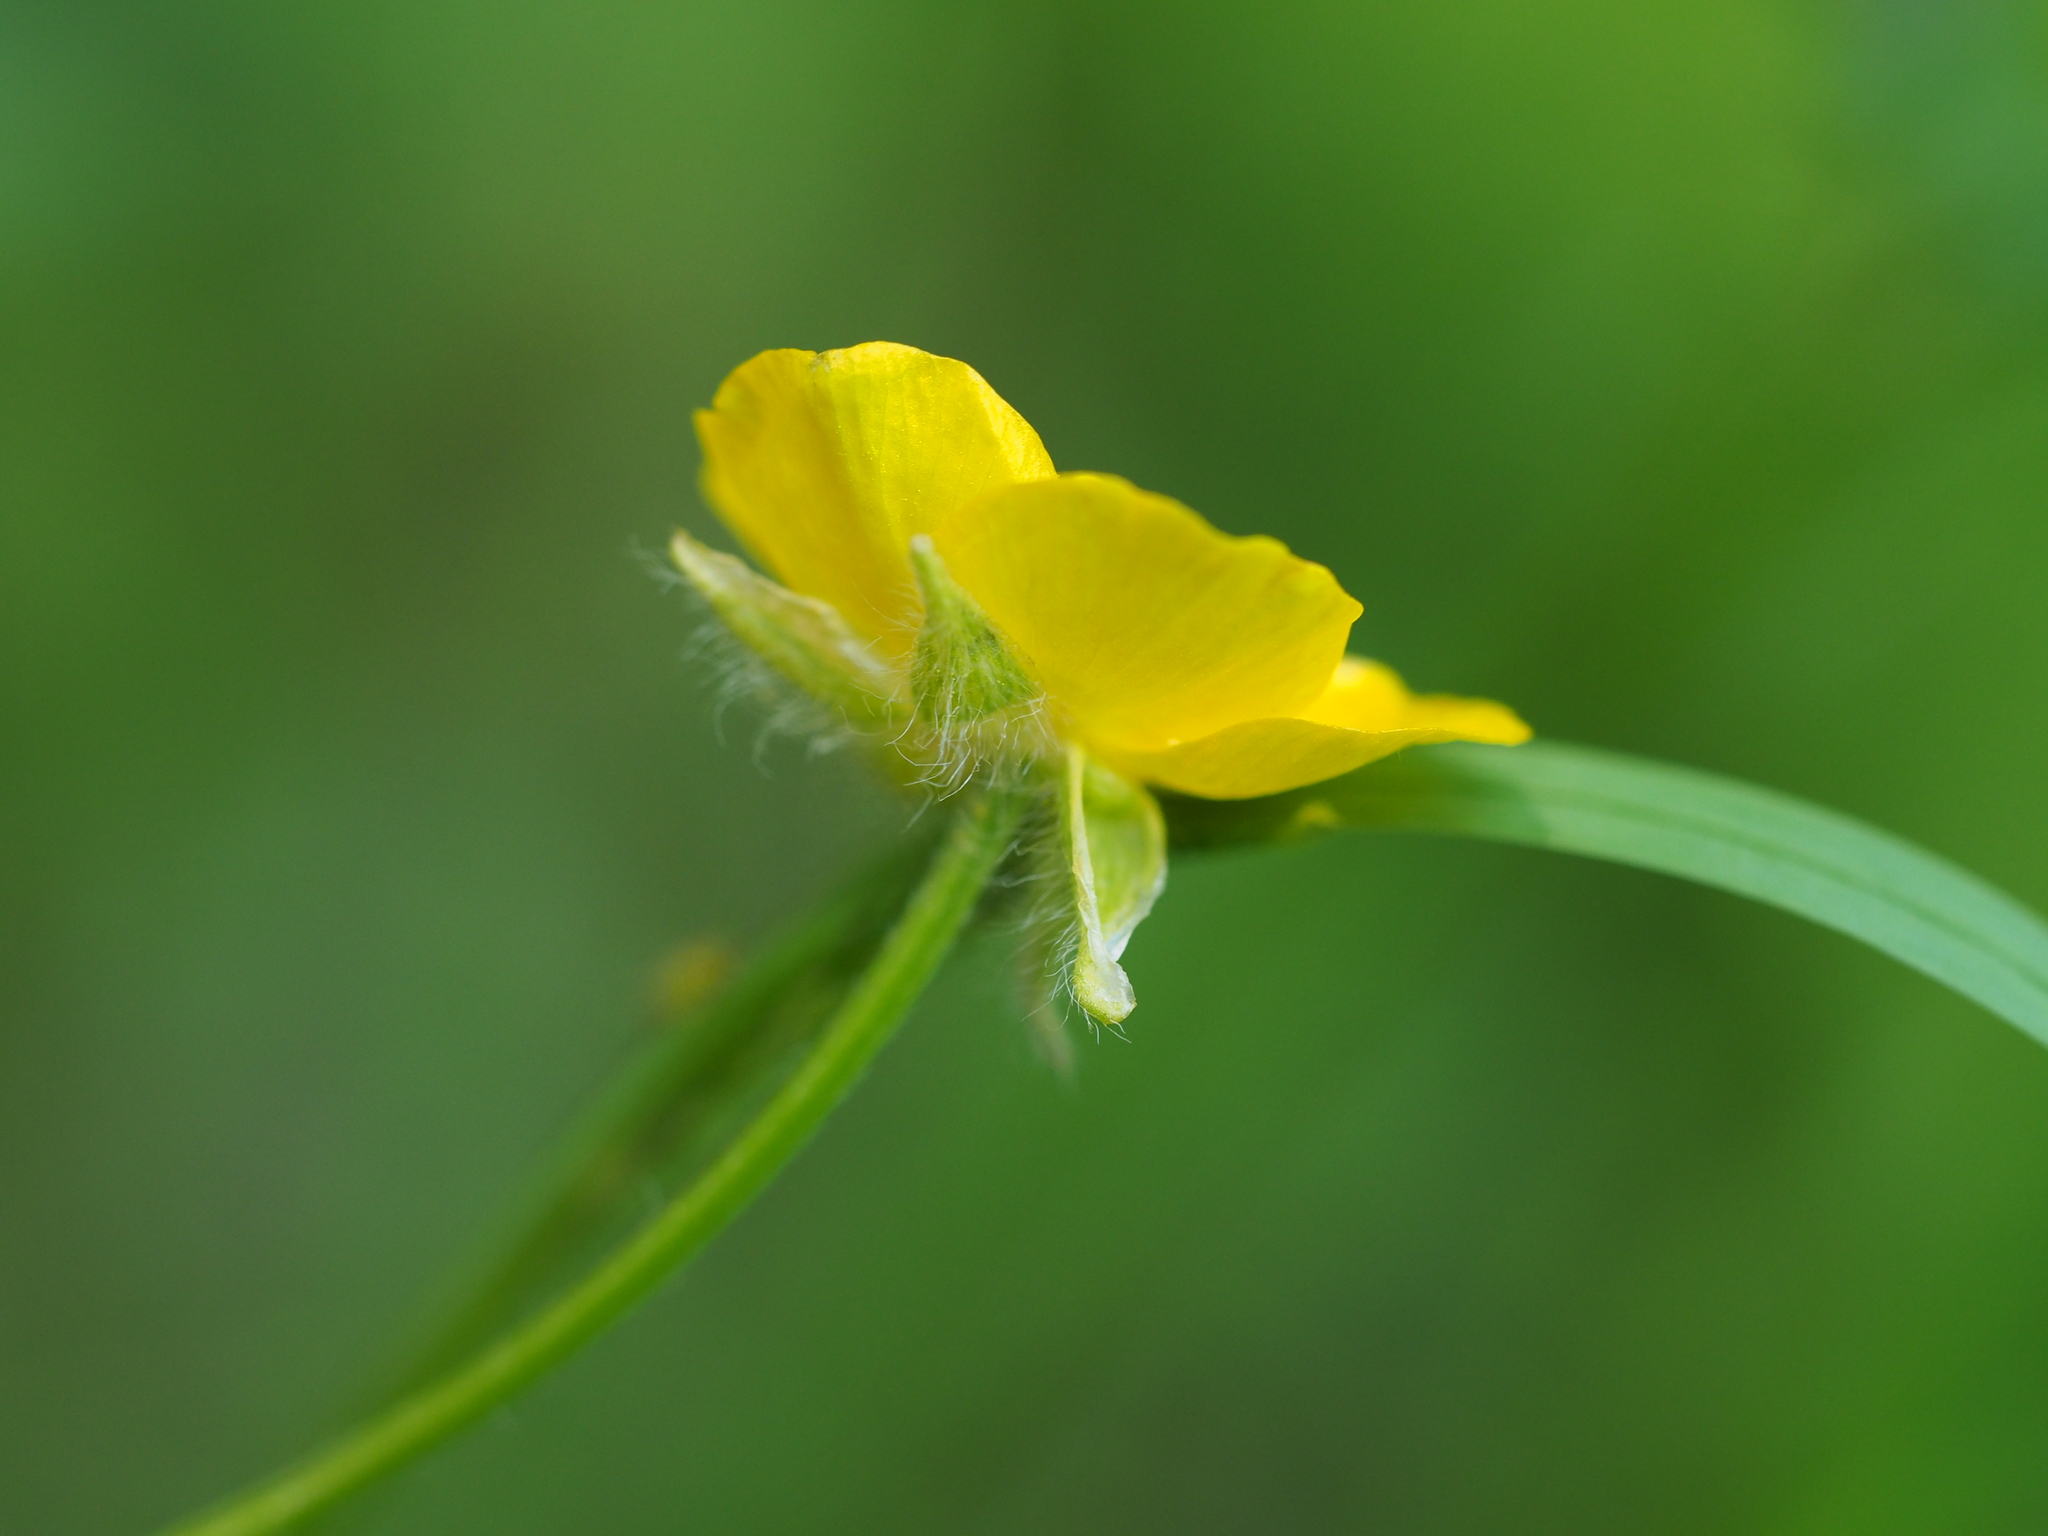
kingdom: Plantae
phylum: Tracheophyta
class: Magnoliopsida
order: Ranunculales
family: Ranunculaceae
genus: Ranunculus
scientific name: Ranunculus bulbosus
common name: Bulbous buttercup
